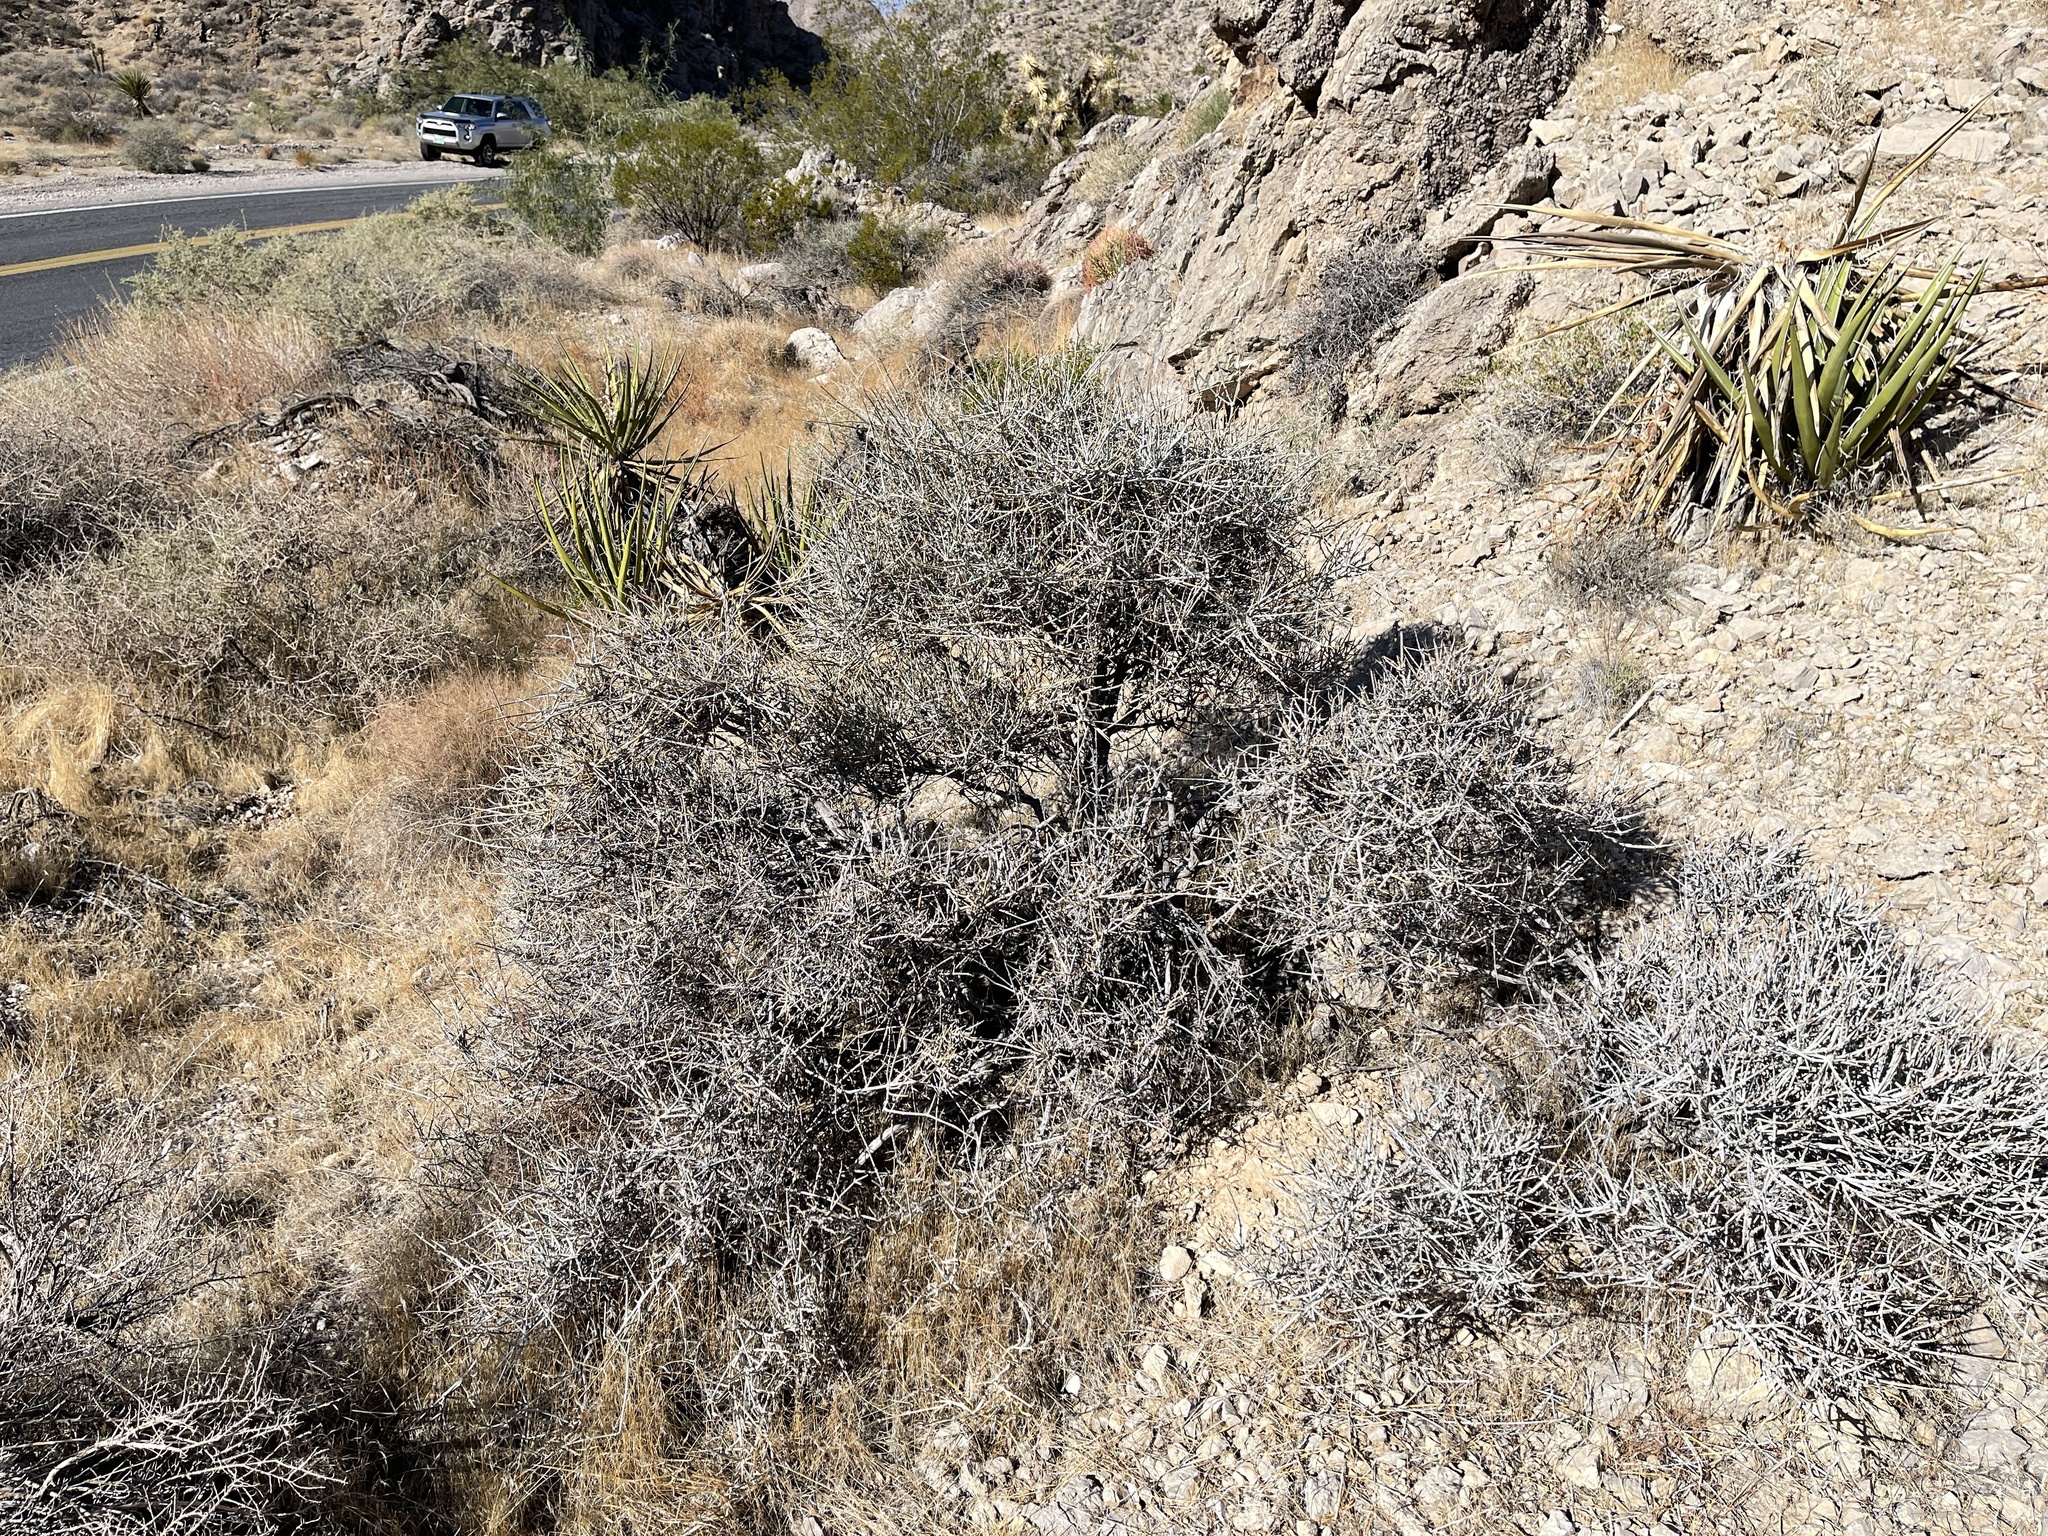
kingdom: Plantae
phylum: Tracheophyta
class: Gnetopsida
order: Ephedrales
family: Ephedraceae
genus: Ephedra
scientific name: Ephedra nevadensis
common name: Gray ephedra
